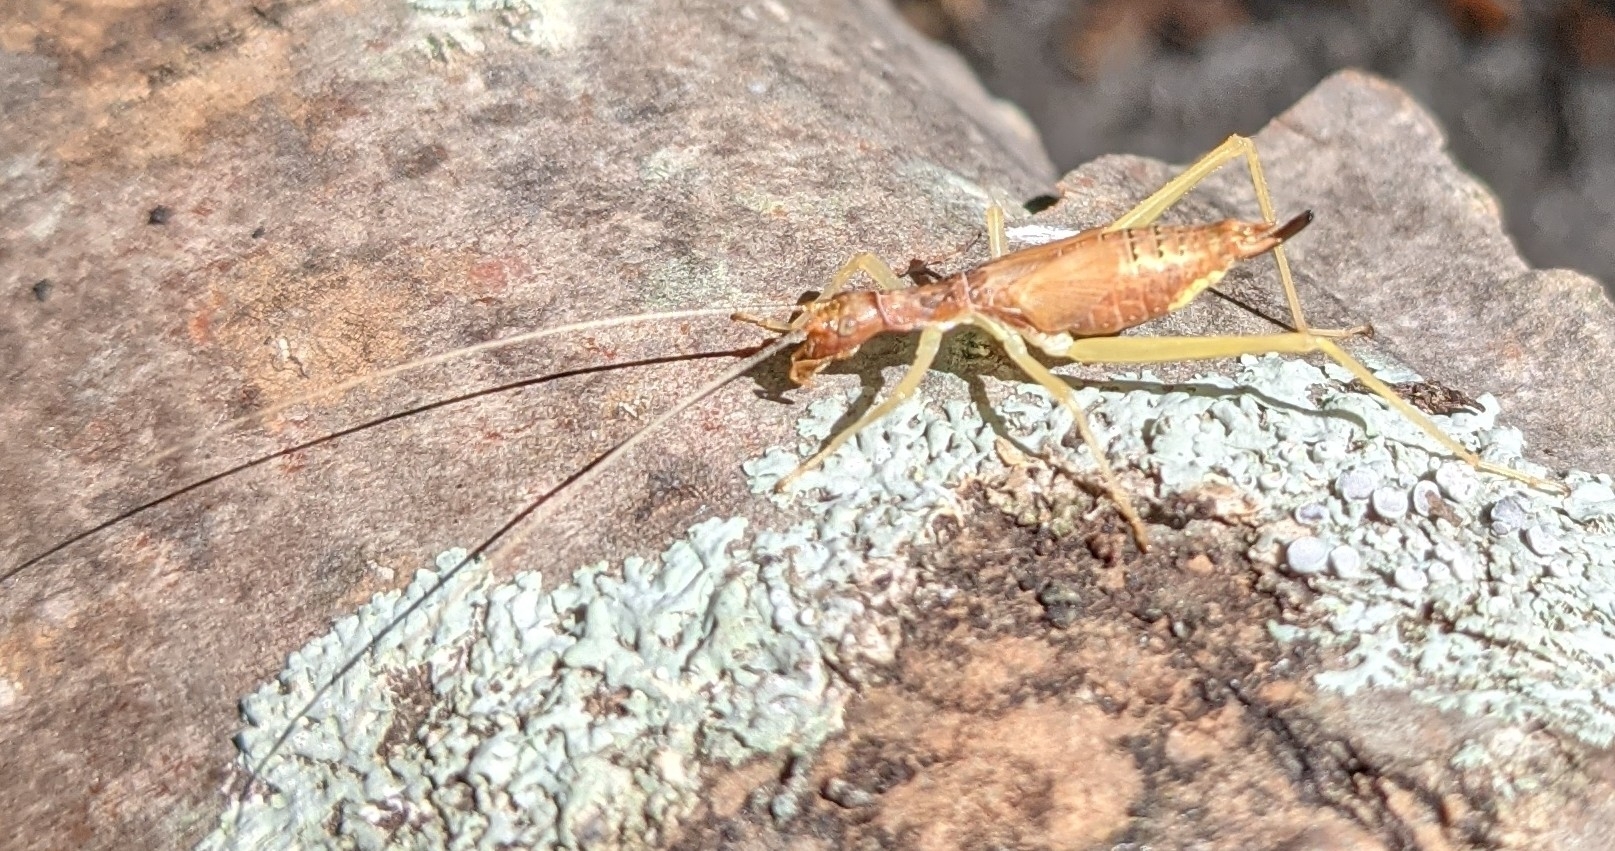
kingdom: Animalia
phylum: Arthropoda
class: Insecta
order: Orthoptera
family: Gryllidae
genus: Neoxabea
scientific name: Neoxabea bipunctata
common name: Two-spotted tree cricket
